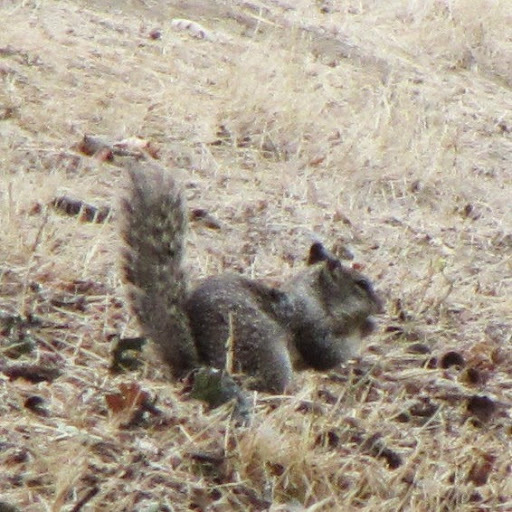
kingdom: Animalia
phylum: Chordata
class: Mammalia
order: Rodentia
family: Sciuridae
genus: Otospermophilus
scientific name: Otospermophilus beecheyi
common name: California ground squirrel
